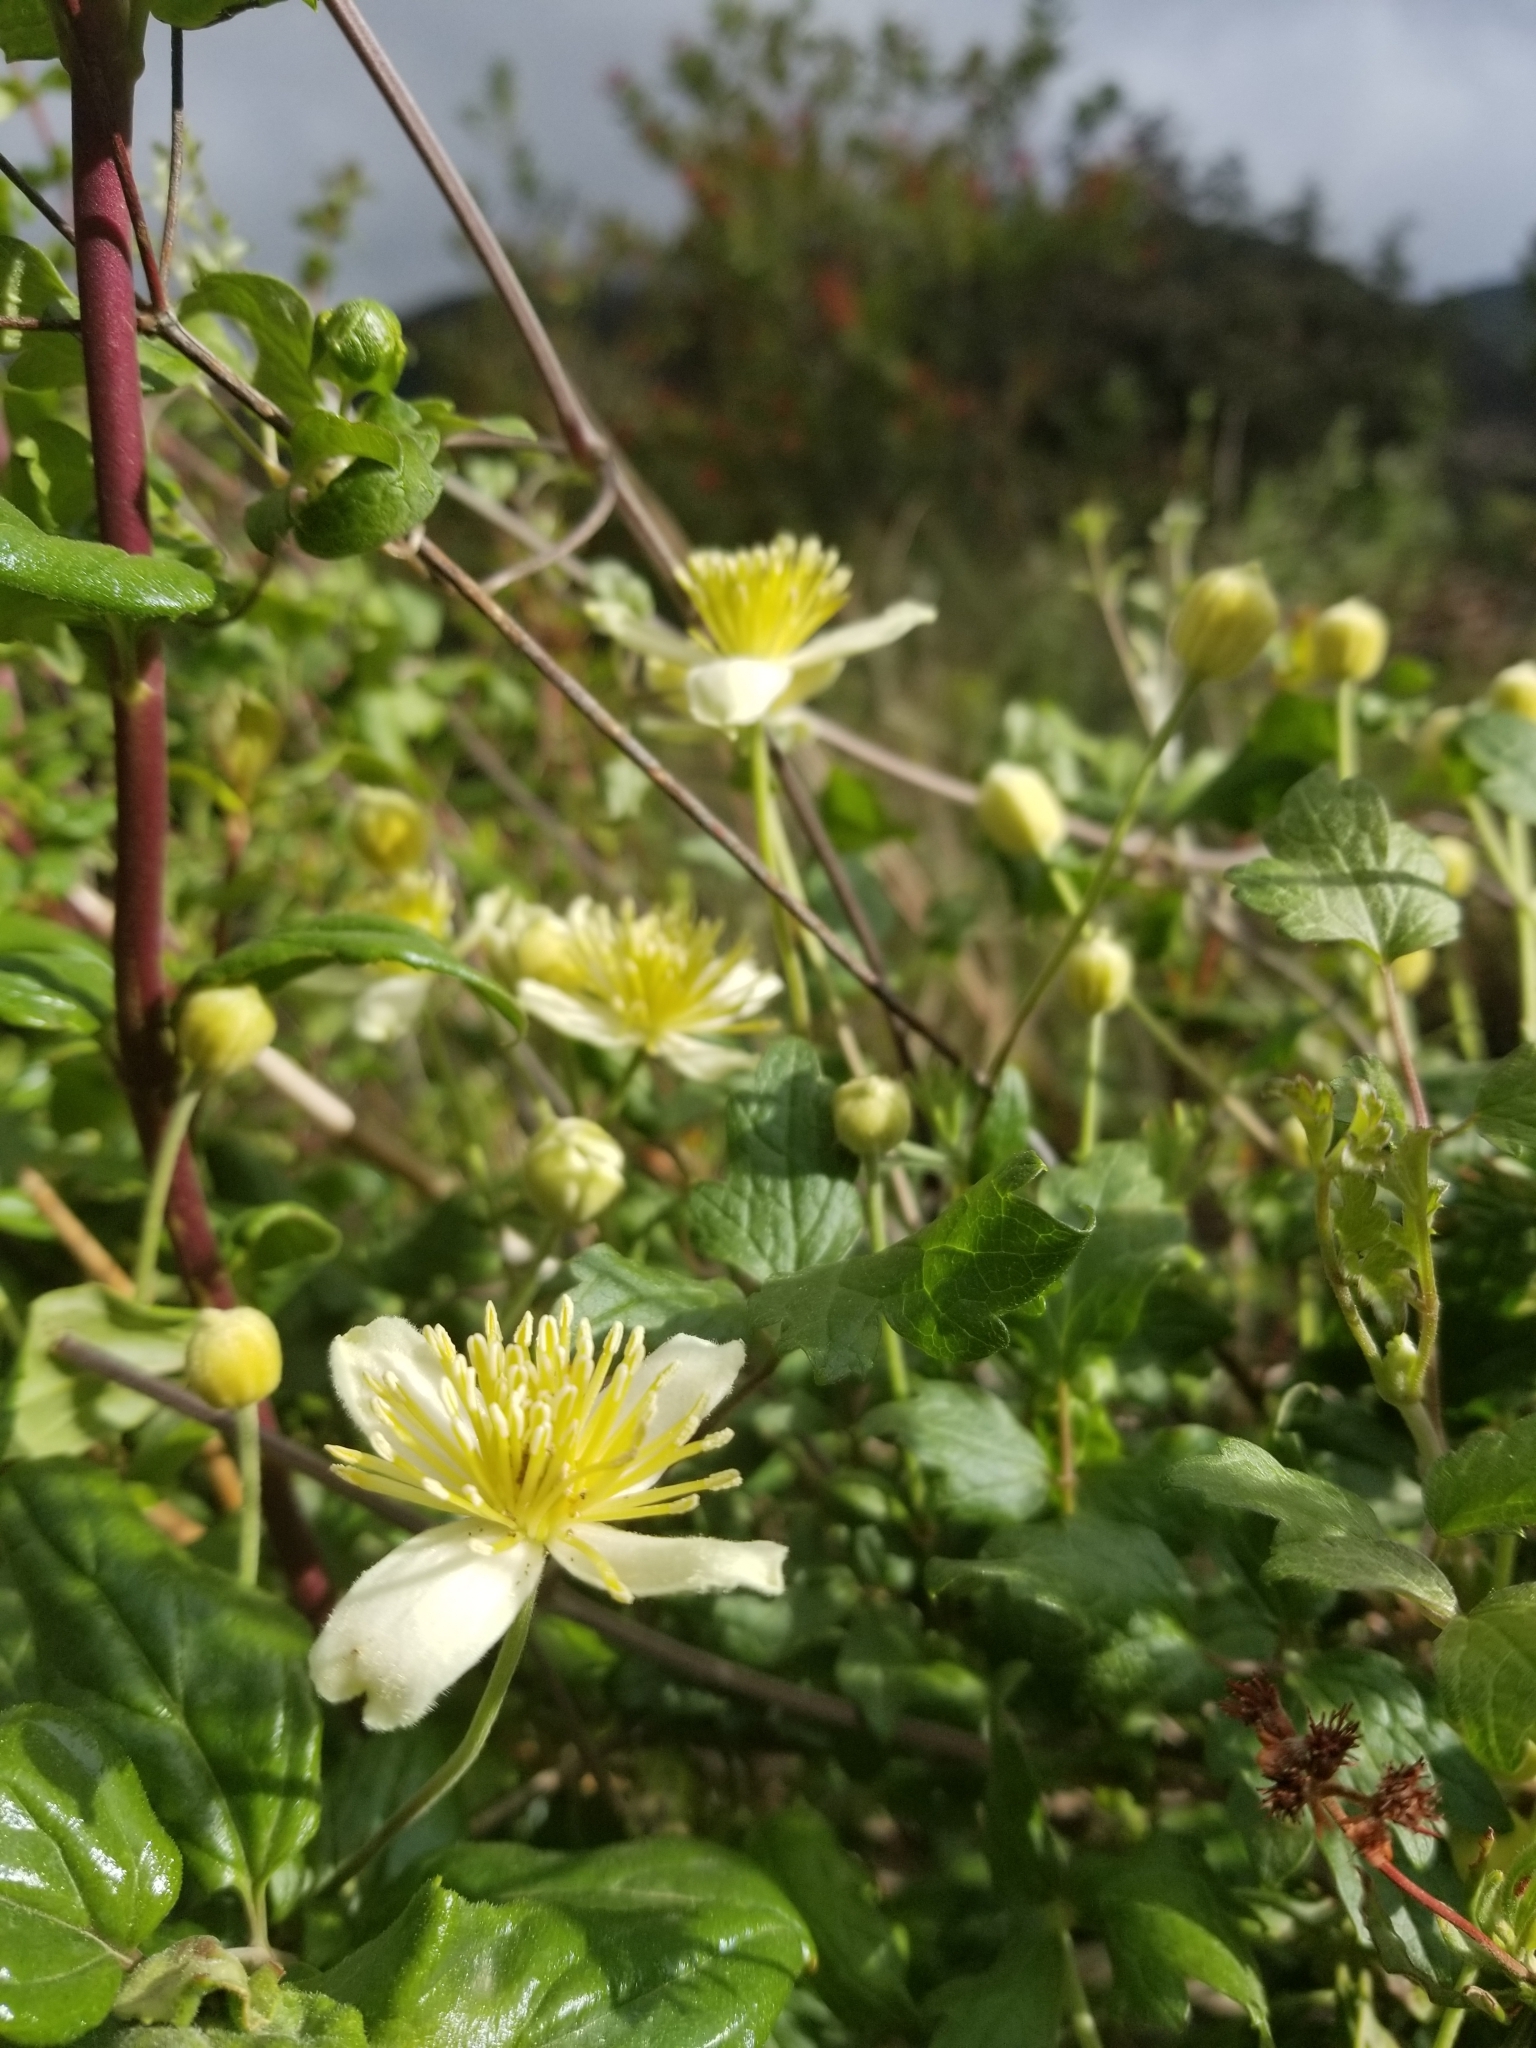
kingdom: Plantae
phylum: Tracheophyta
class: Magnoliopsida
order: Ranunculales
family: Ranunculaceae
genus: Clematis
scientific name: Clematis pauciflora
